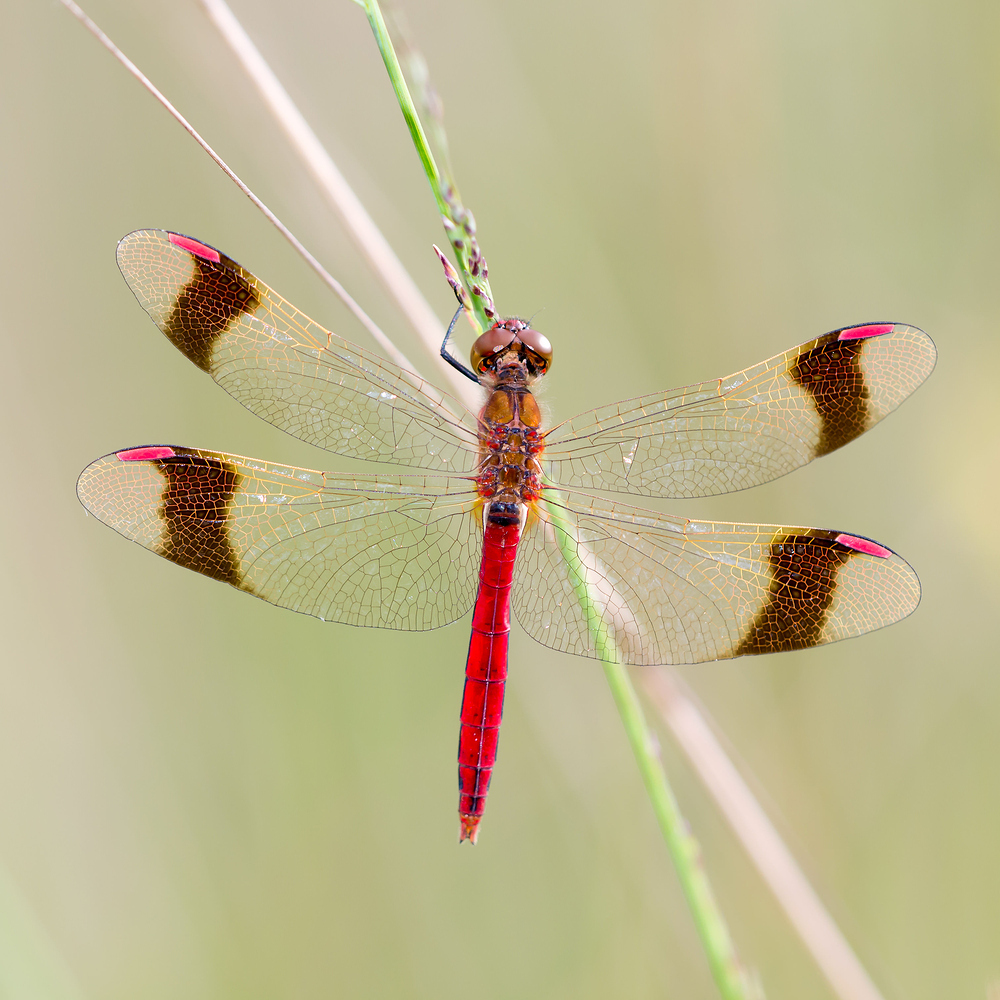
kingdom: Animalia
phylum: Arthropoda
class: Insecta
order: Odonata
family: Libellulidae
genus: Sympetrum
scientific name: Sympetrum pedemontanum
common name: Banded darter
